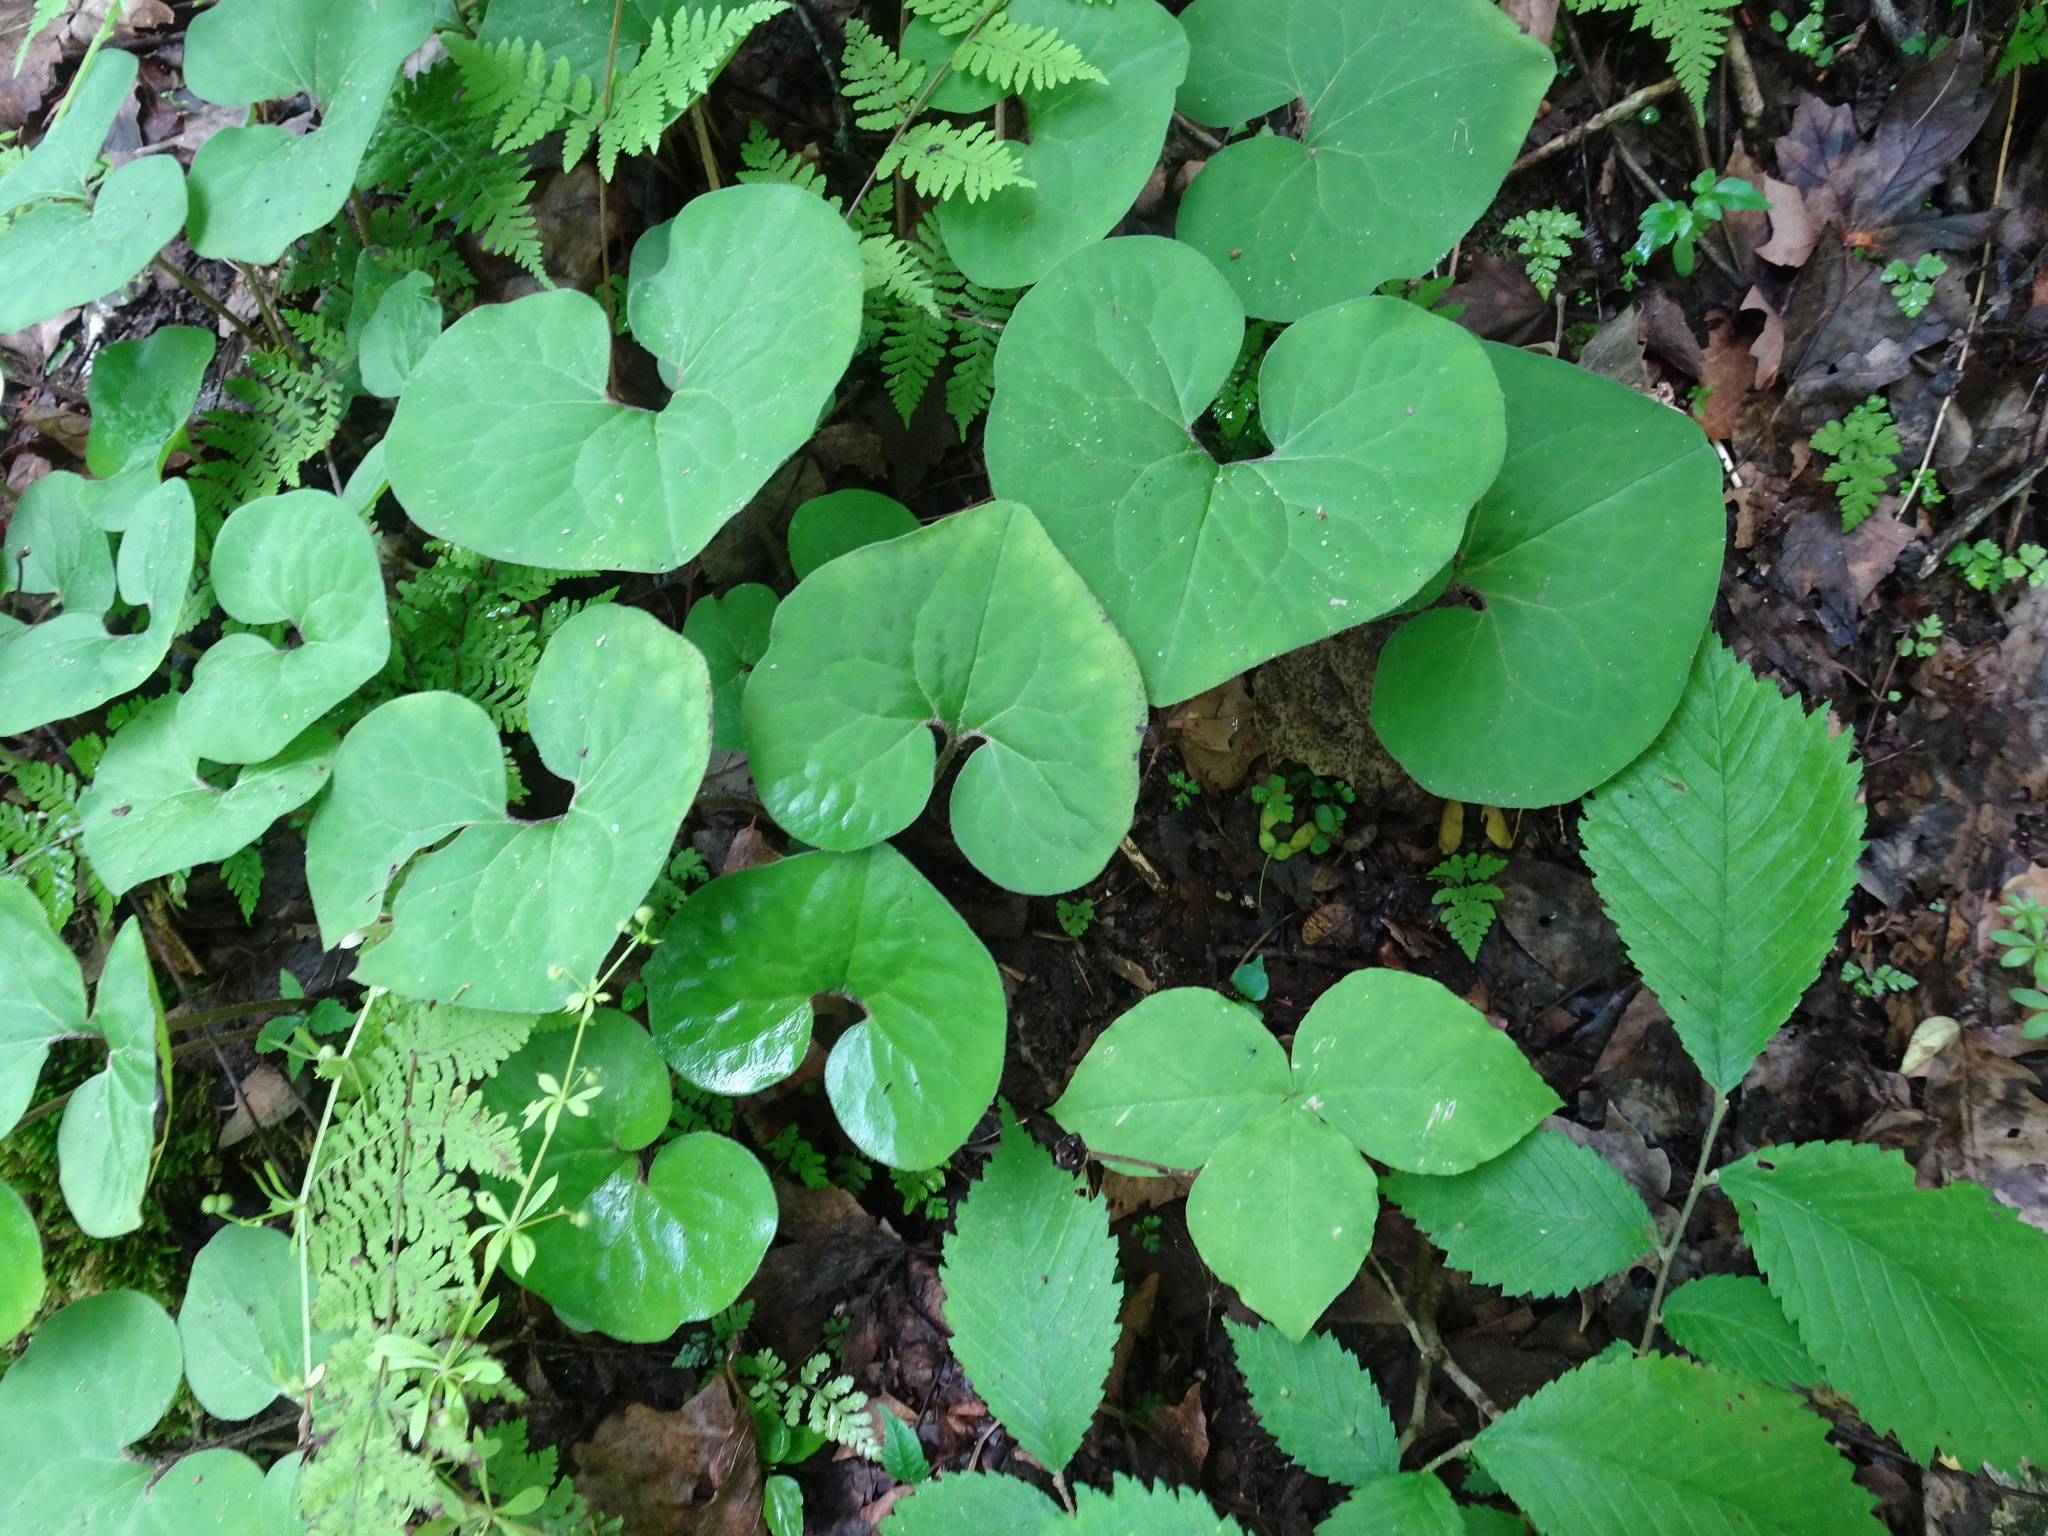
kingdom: Plantae
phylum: Tracheophyta
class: Magnoliopsida
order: Piperales
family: Aristolochiaceae
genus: Asarum
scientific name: Asarum canadense
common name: Wild ginger
